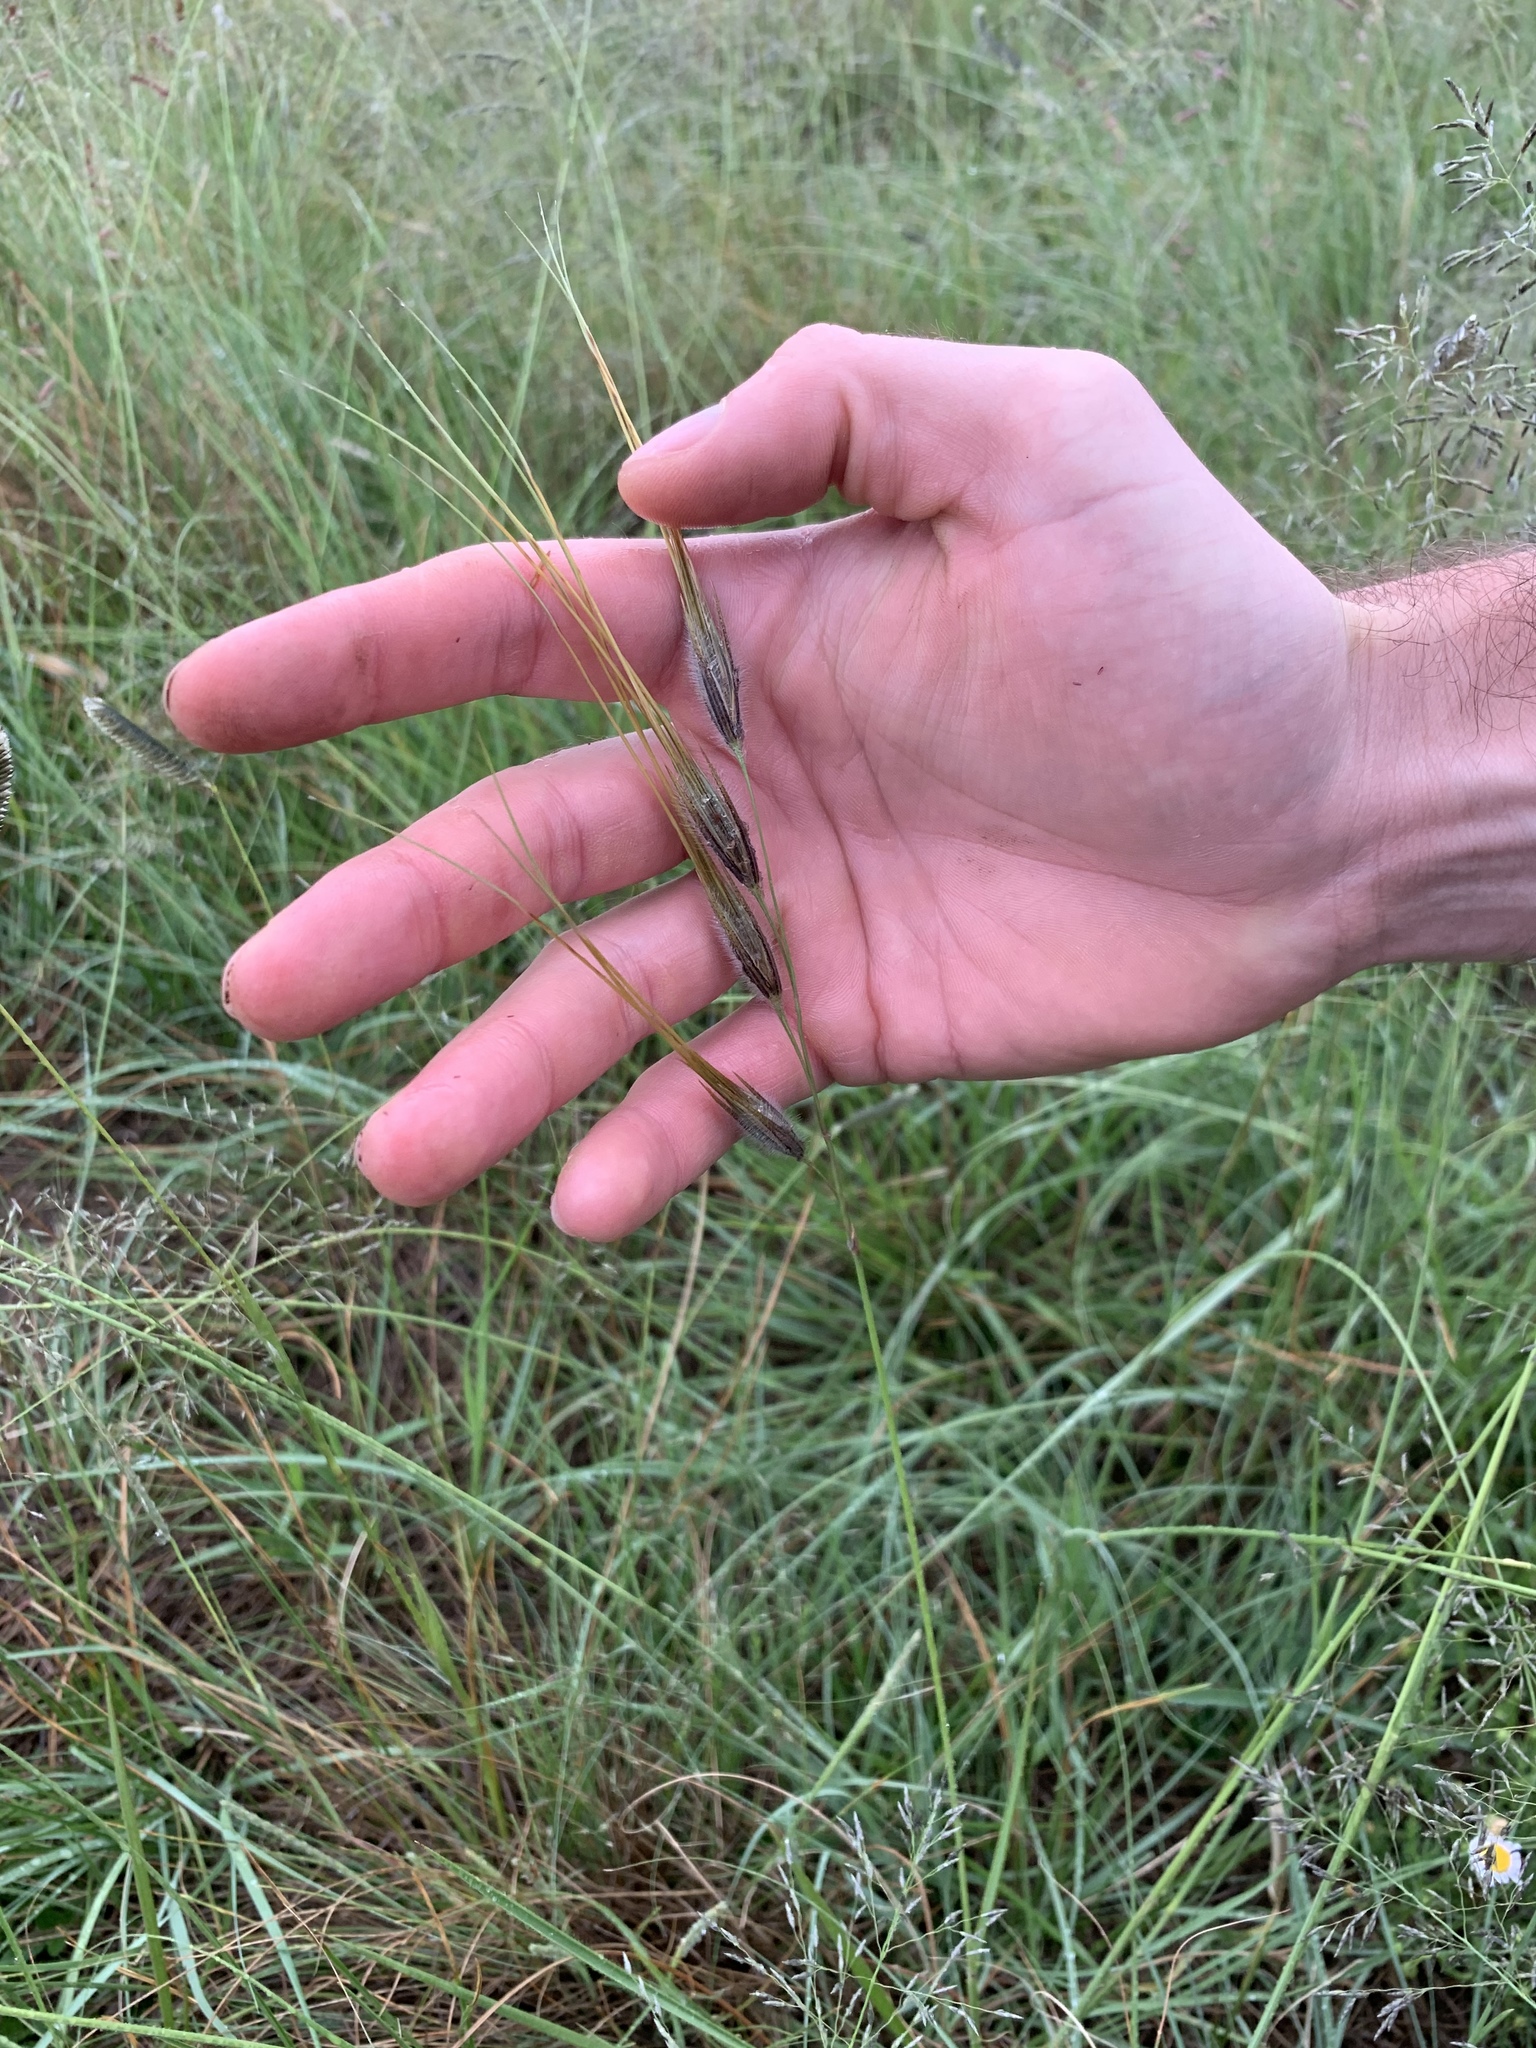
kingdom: Plantae
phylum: Tracheophyta
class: Liliopsida
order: Poales
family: Poaceae
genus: Tristachya
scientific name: Tristachya leucothrix
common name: Trident grass
